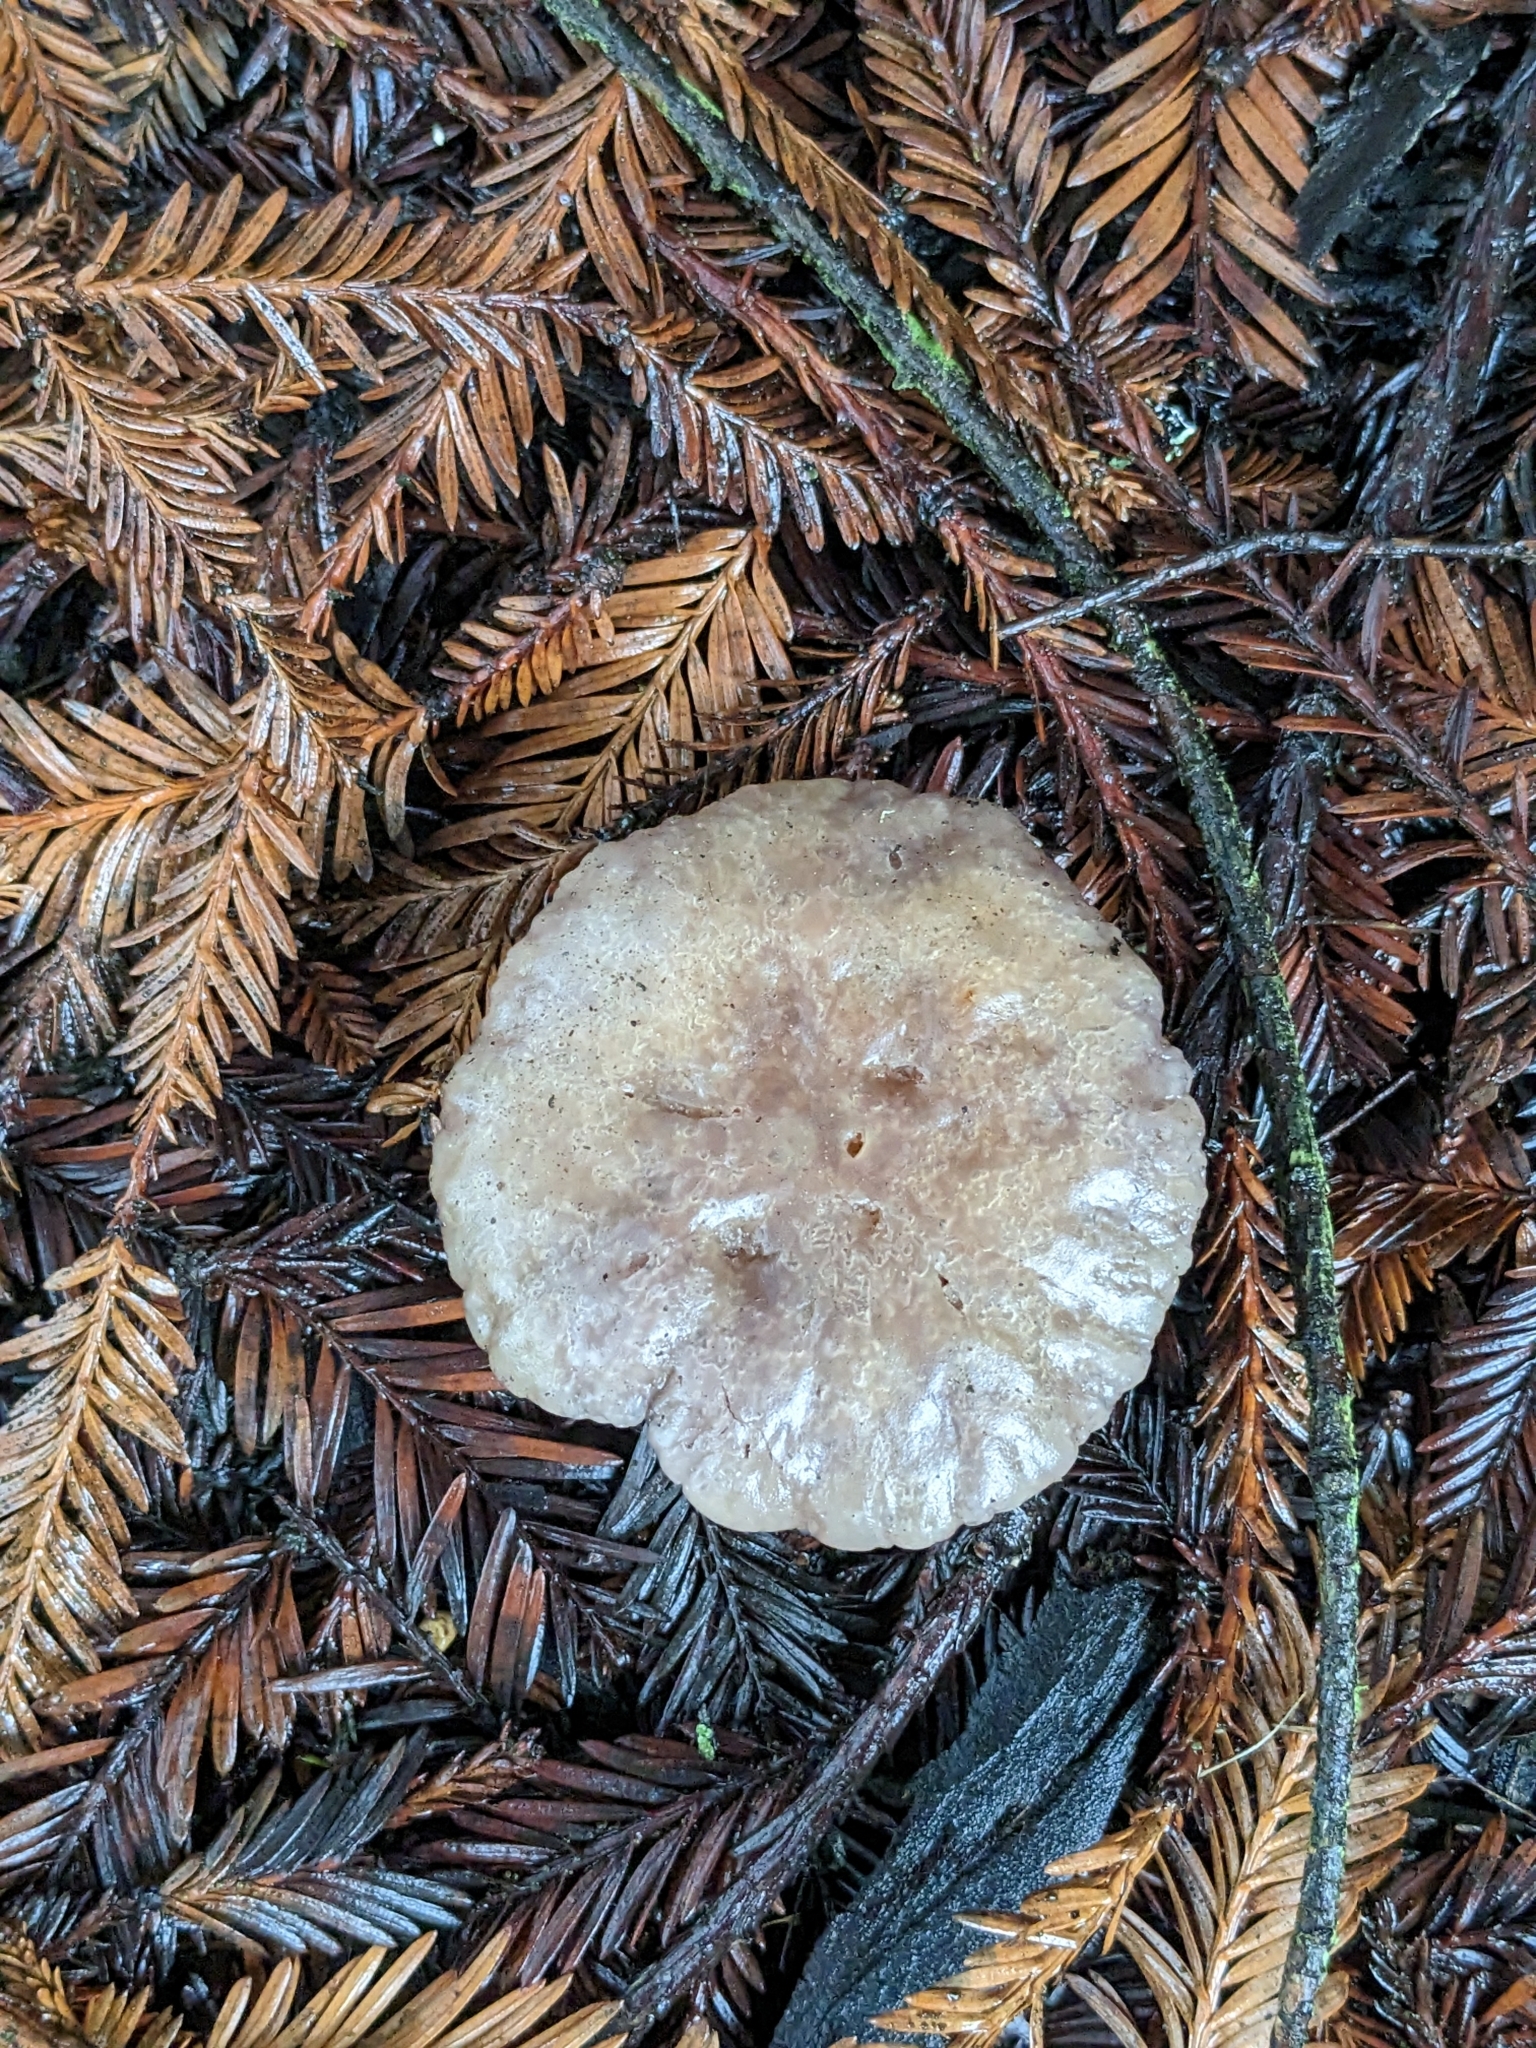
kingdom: Fungi
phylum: Basidiomycota
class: Agaricomycetes
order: Agaricales
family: Mycenaceae
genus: Mycena
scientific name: Mycena haematopus
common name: Burgundydrop bonnet
